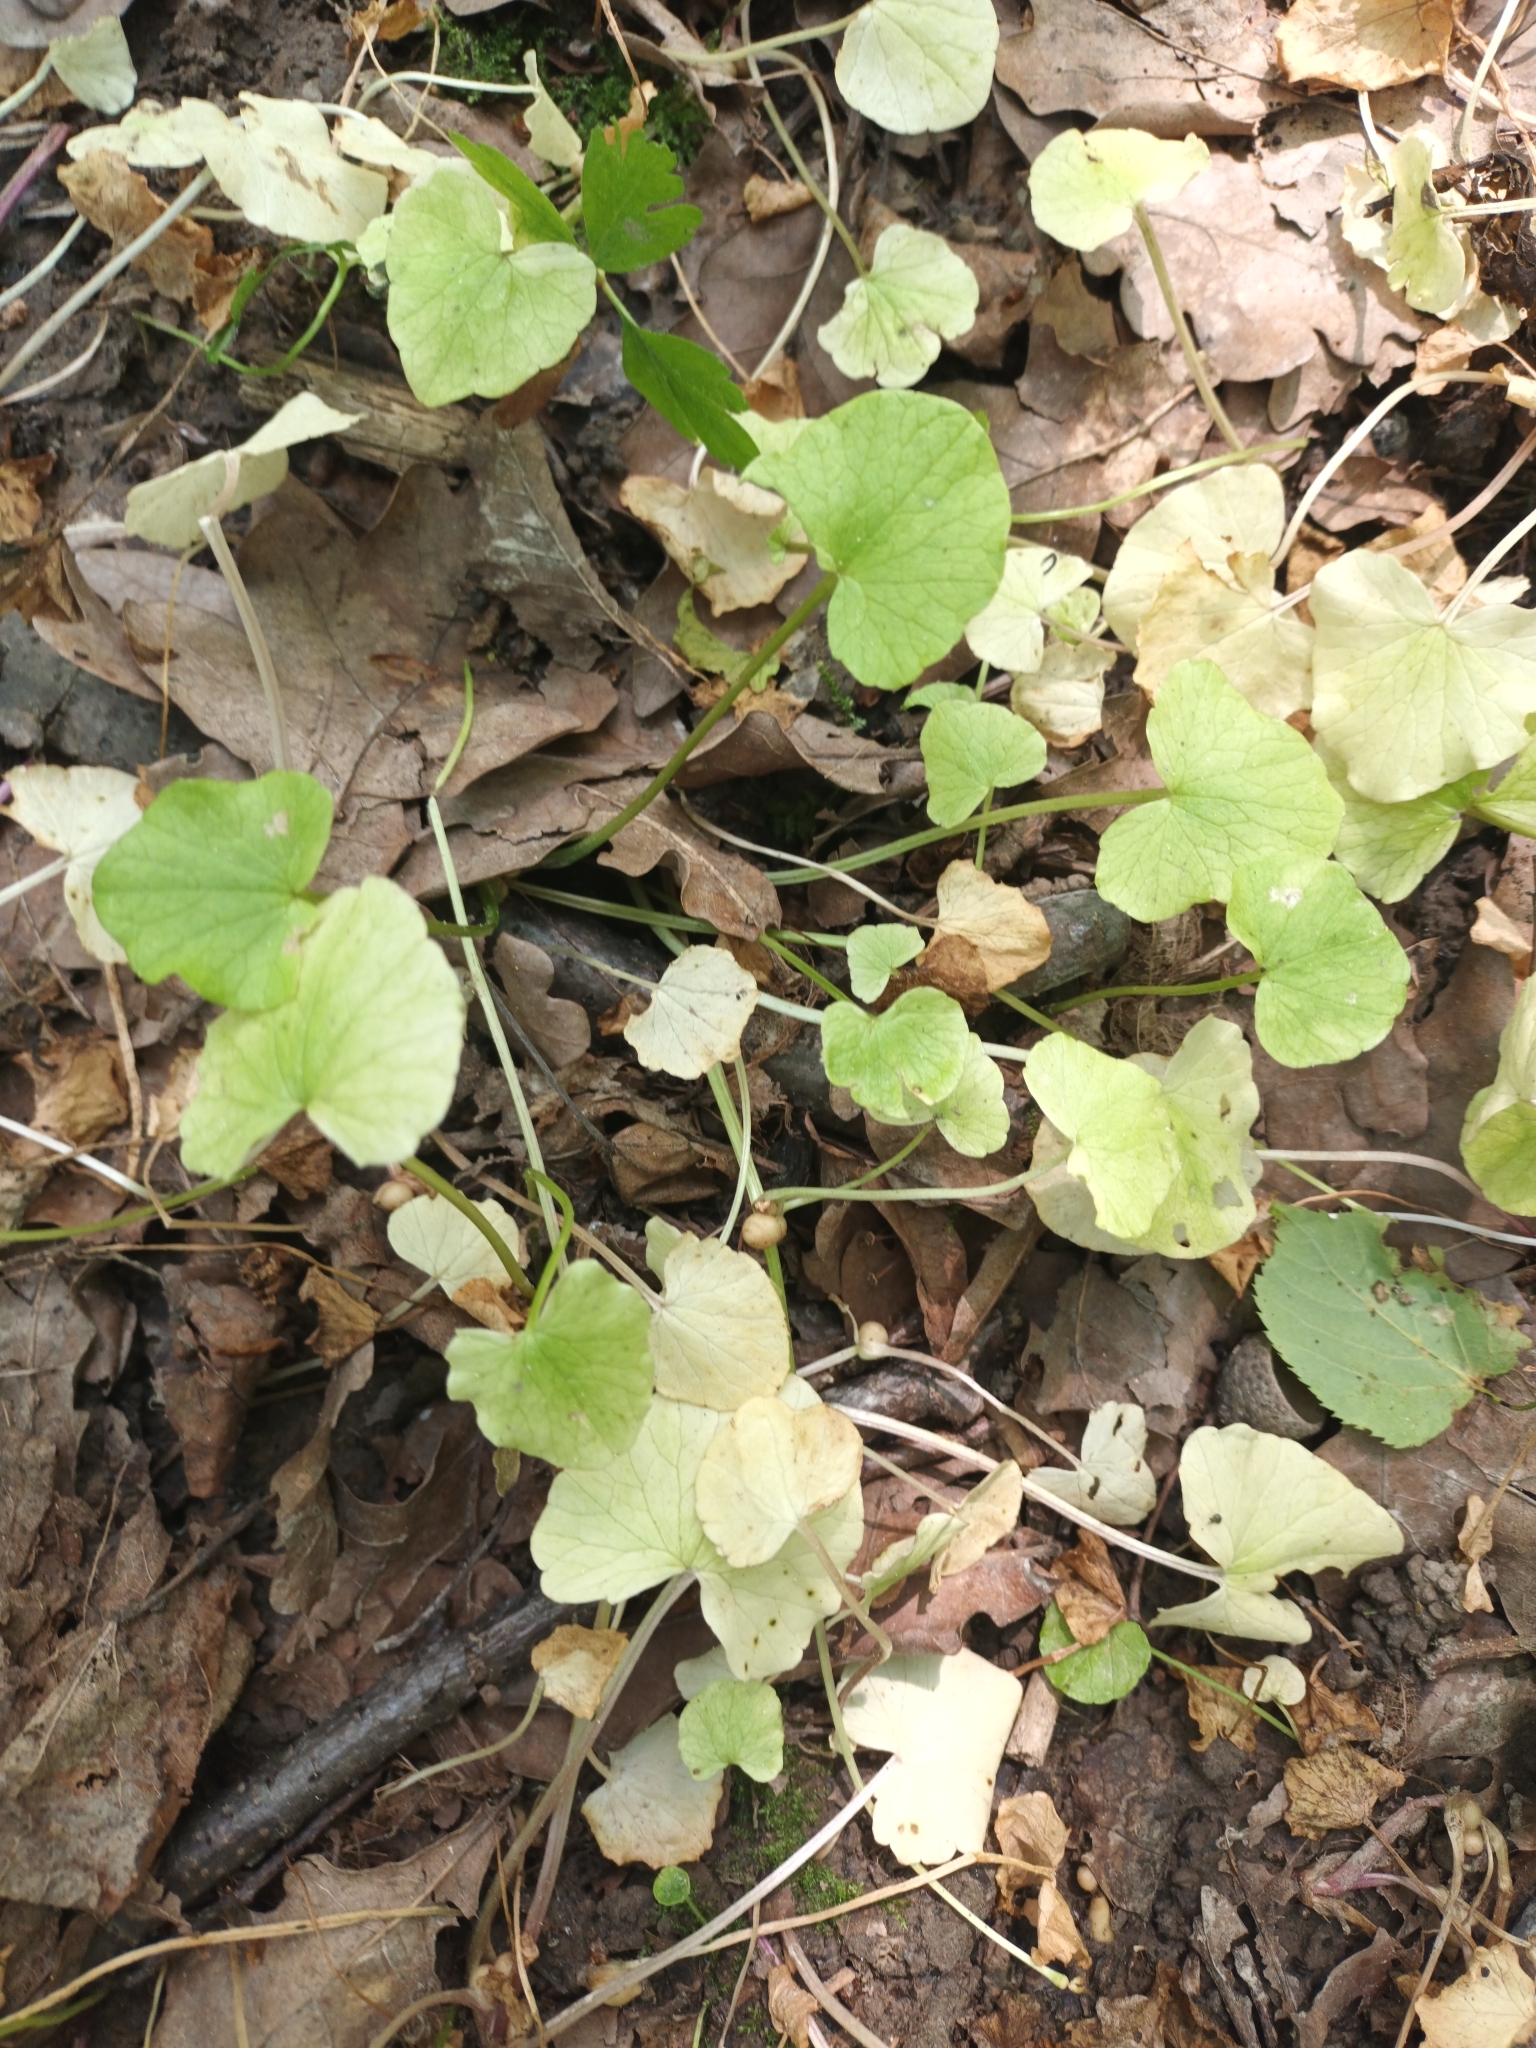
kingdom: Plantae
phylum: Tracheophyta
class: Magnoliopsida
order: Ranunculales
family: Ranunculaceae
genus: Ficaria
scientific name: Ficaria verna
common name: Lesser celandine
